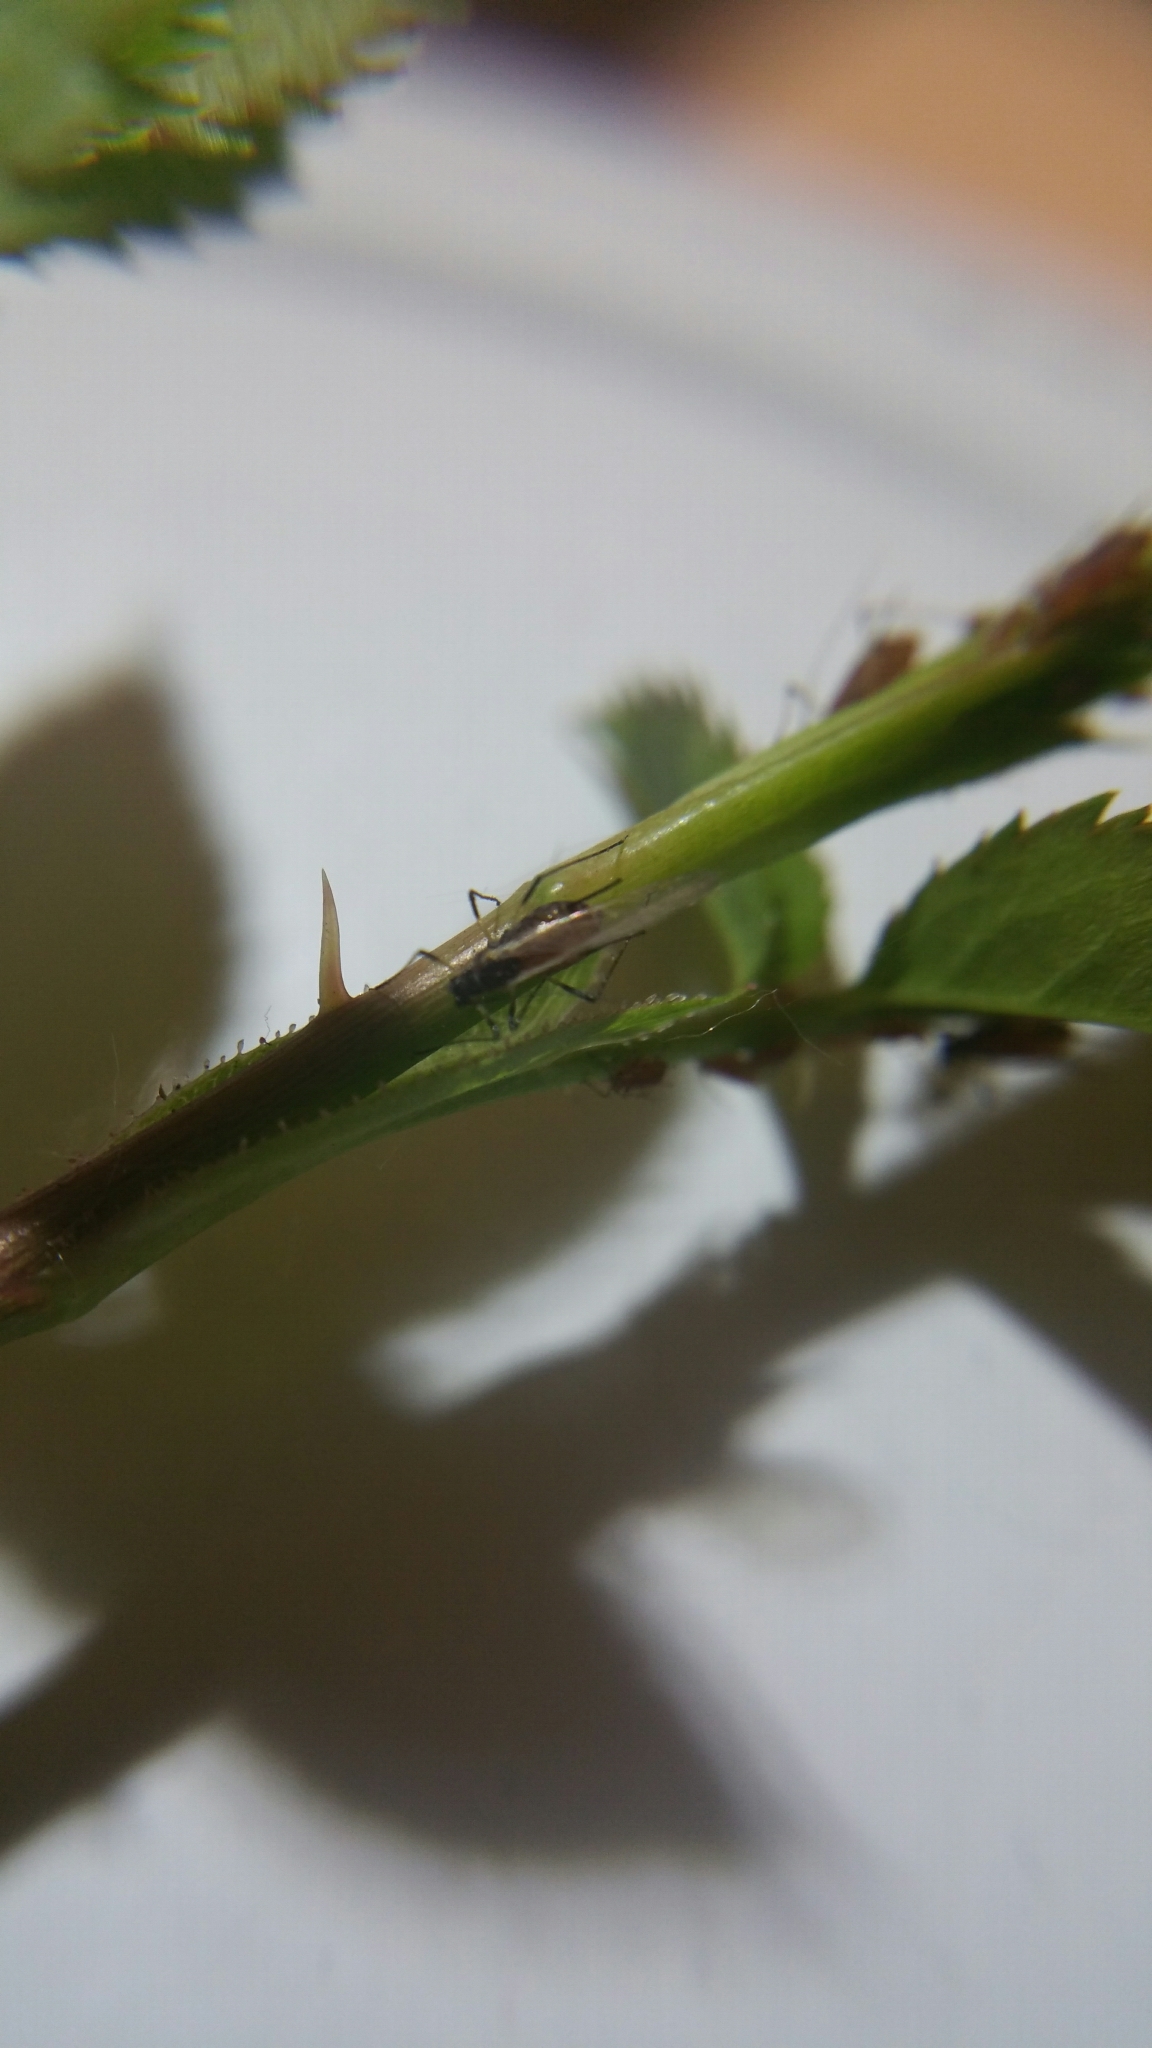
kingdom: Animalia
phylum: Arthropoda
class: Insecta
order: Hemiptera
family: Aphididae
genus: Macrosiphum
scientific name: Macrosiphum rosae
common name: Rose aphid
